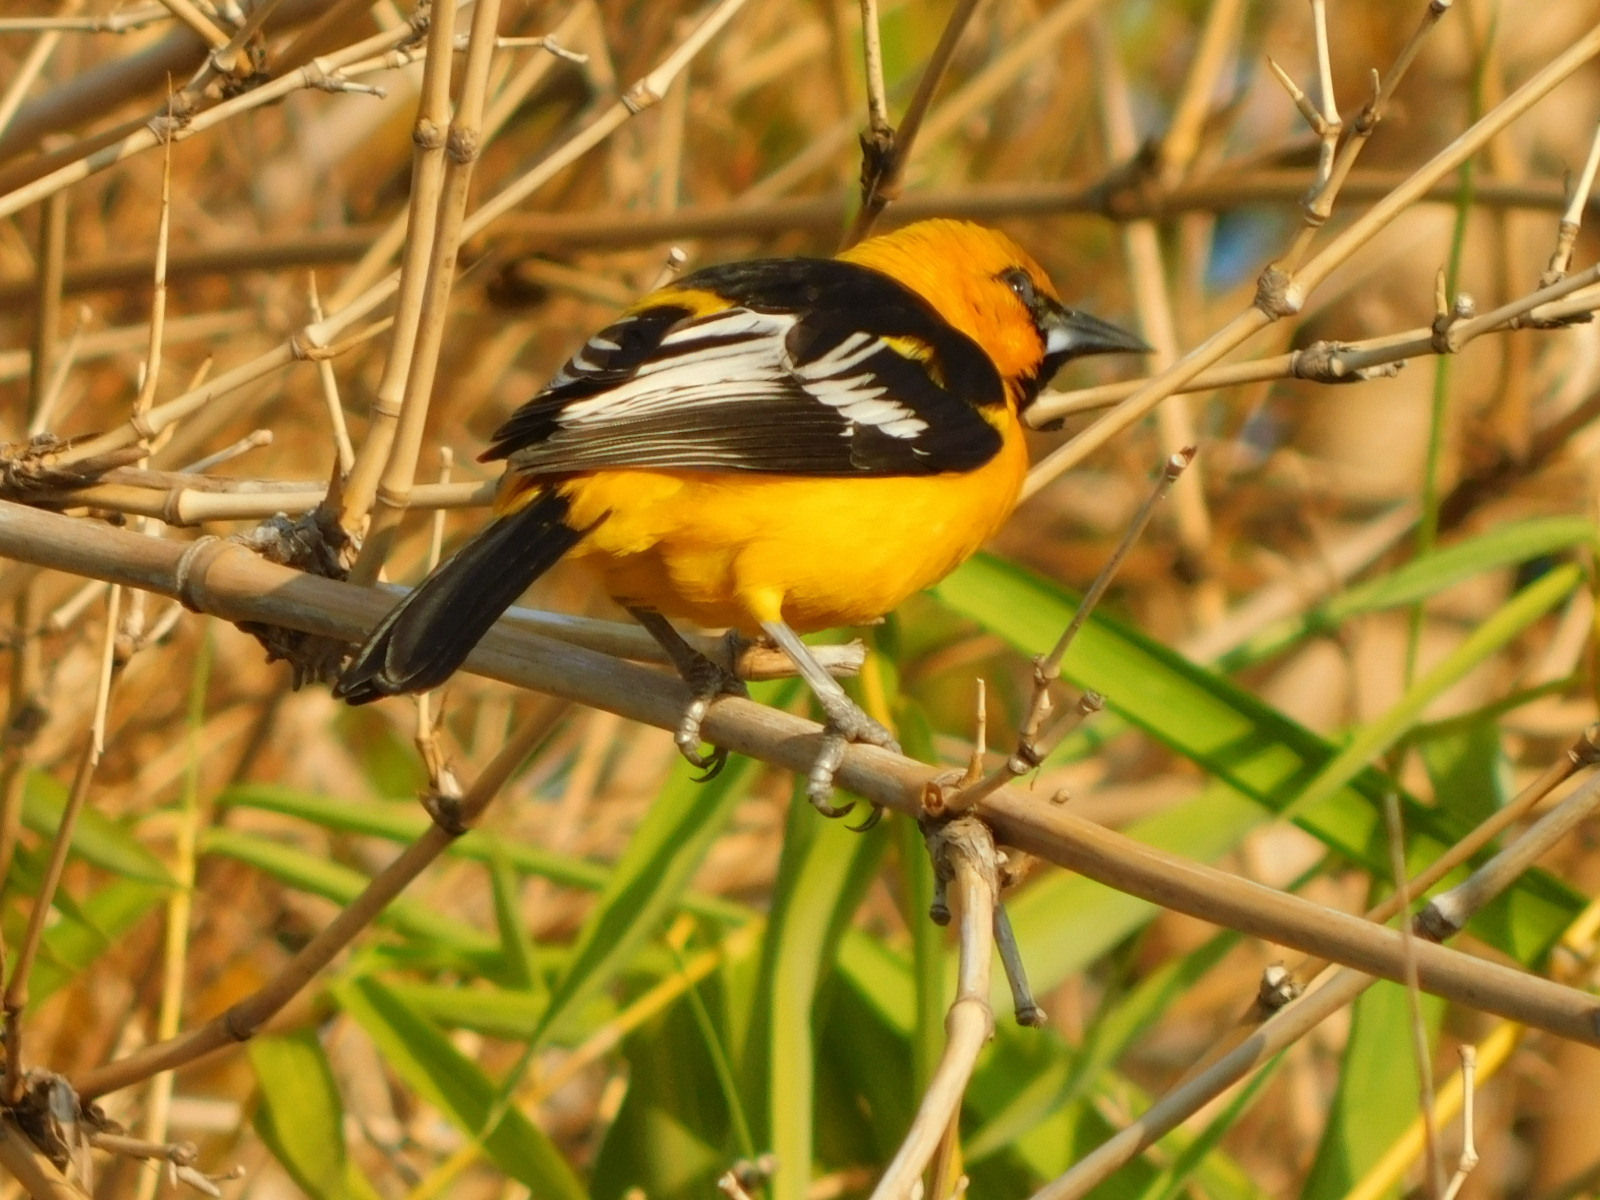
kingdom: Animalia
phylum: Chordata
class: Aves
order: Passeriformes
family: Icteridae
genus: Icterus
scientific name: Icterus gularis
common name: Altamira oriole
